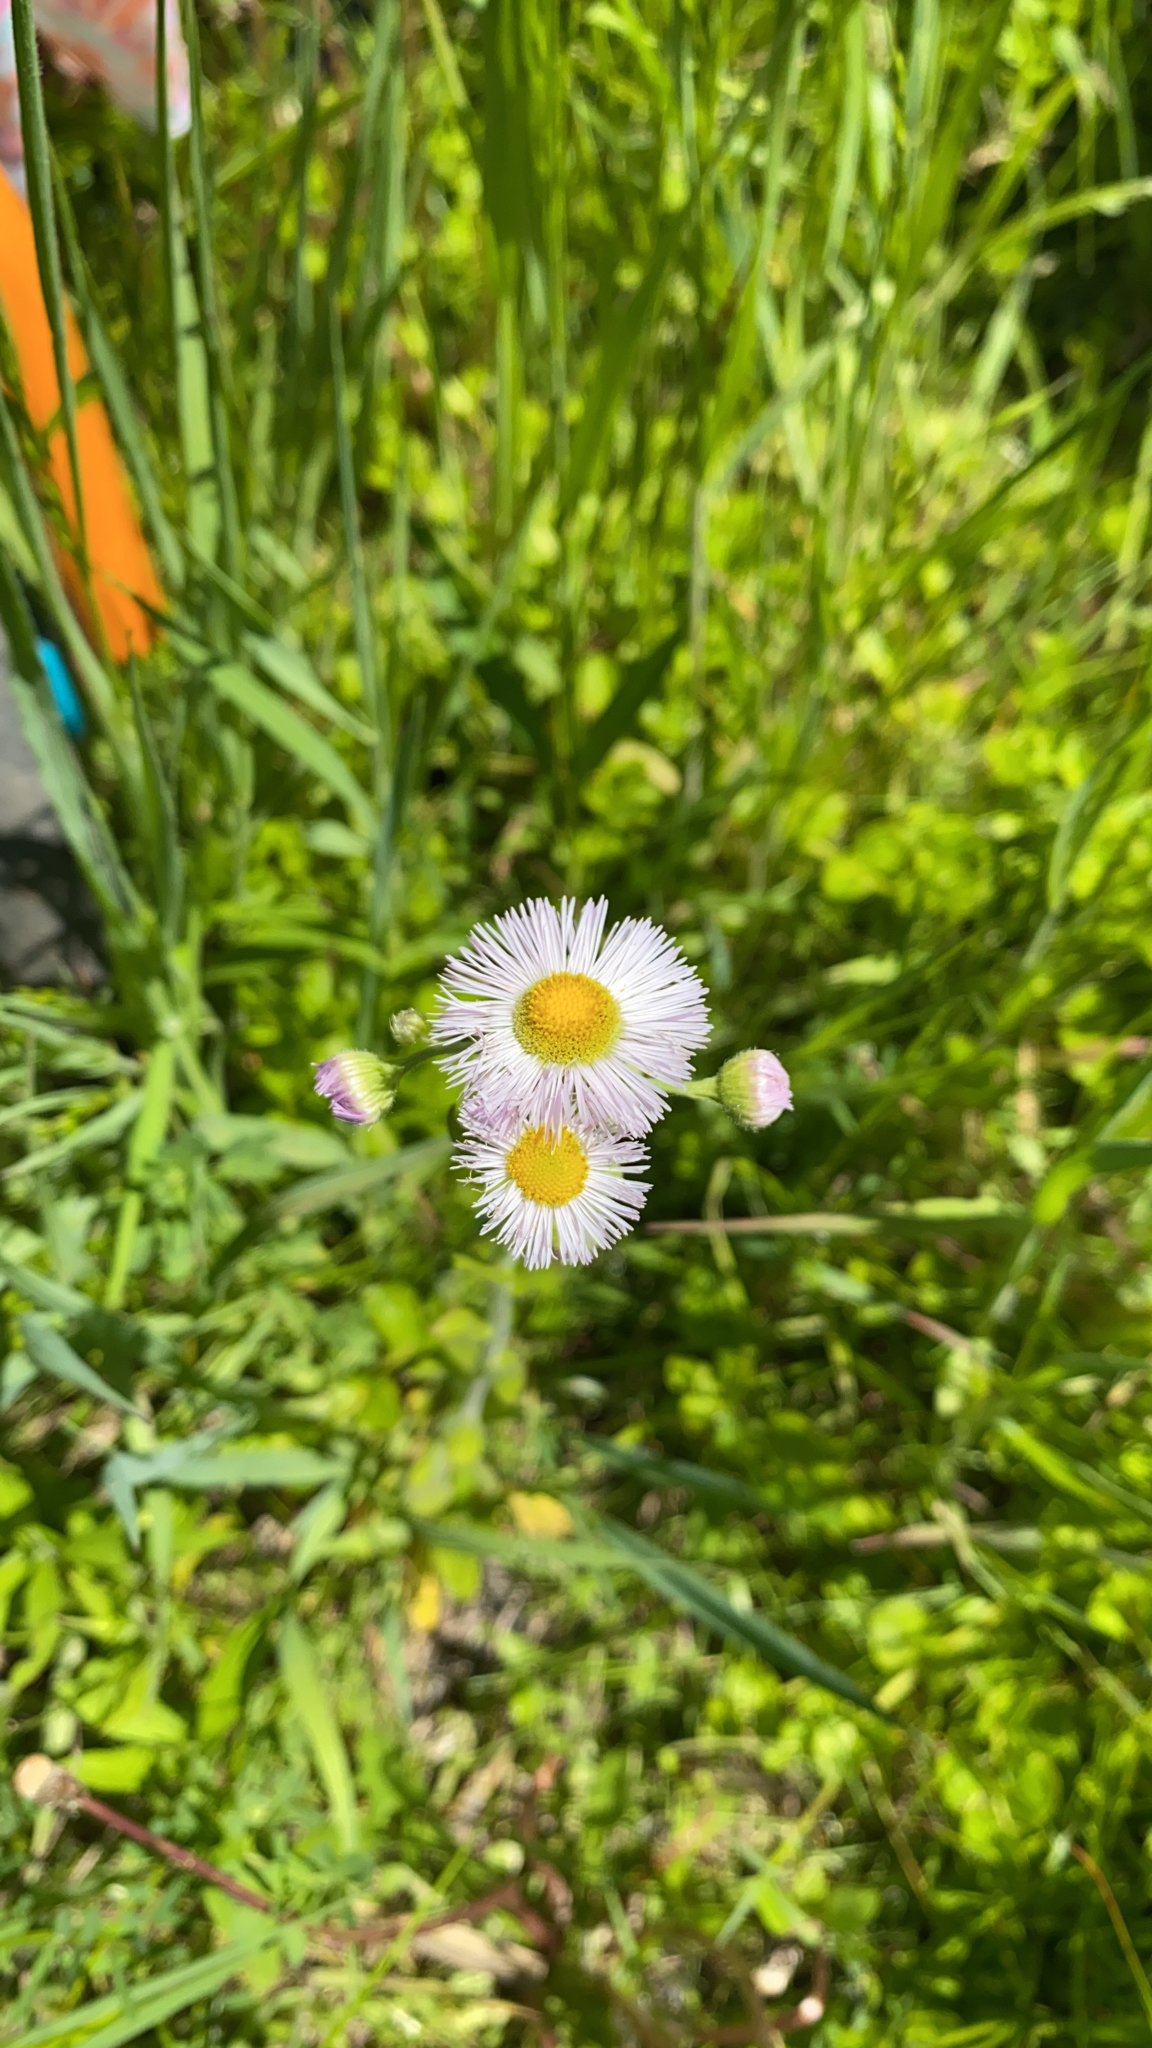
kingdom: Plantae
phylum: Tracheophyta
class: Magnoliopsida
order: Asterales
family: Asteraceae
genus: Erigeron
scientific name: Erigeron philadelphicus
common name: Robin's-plantain
